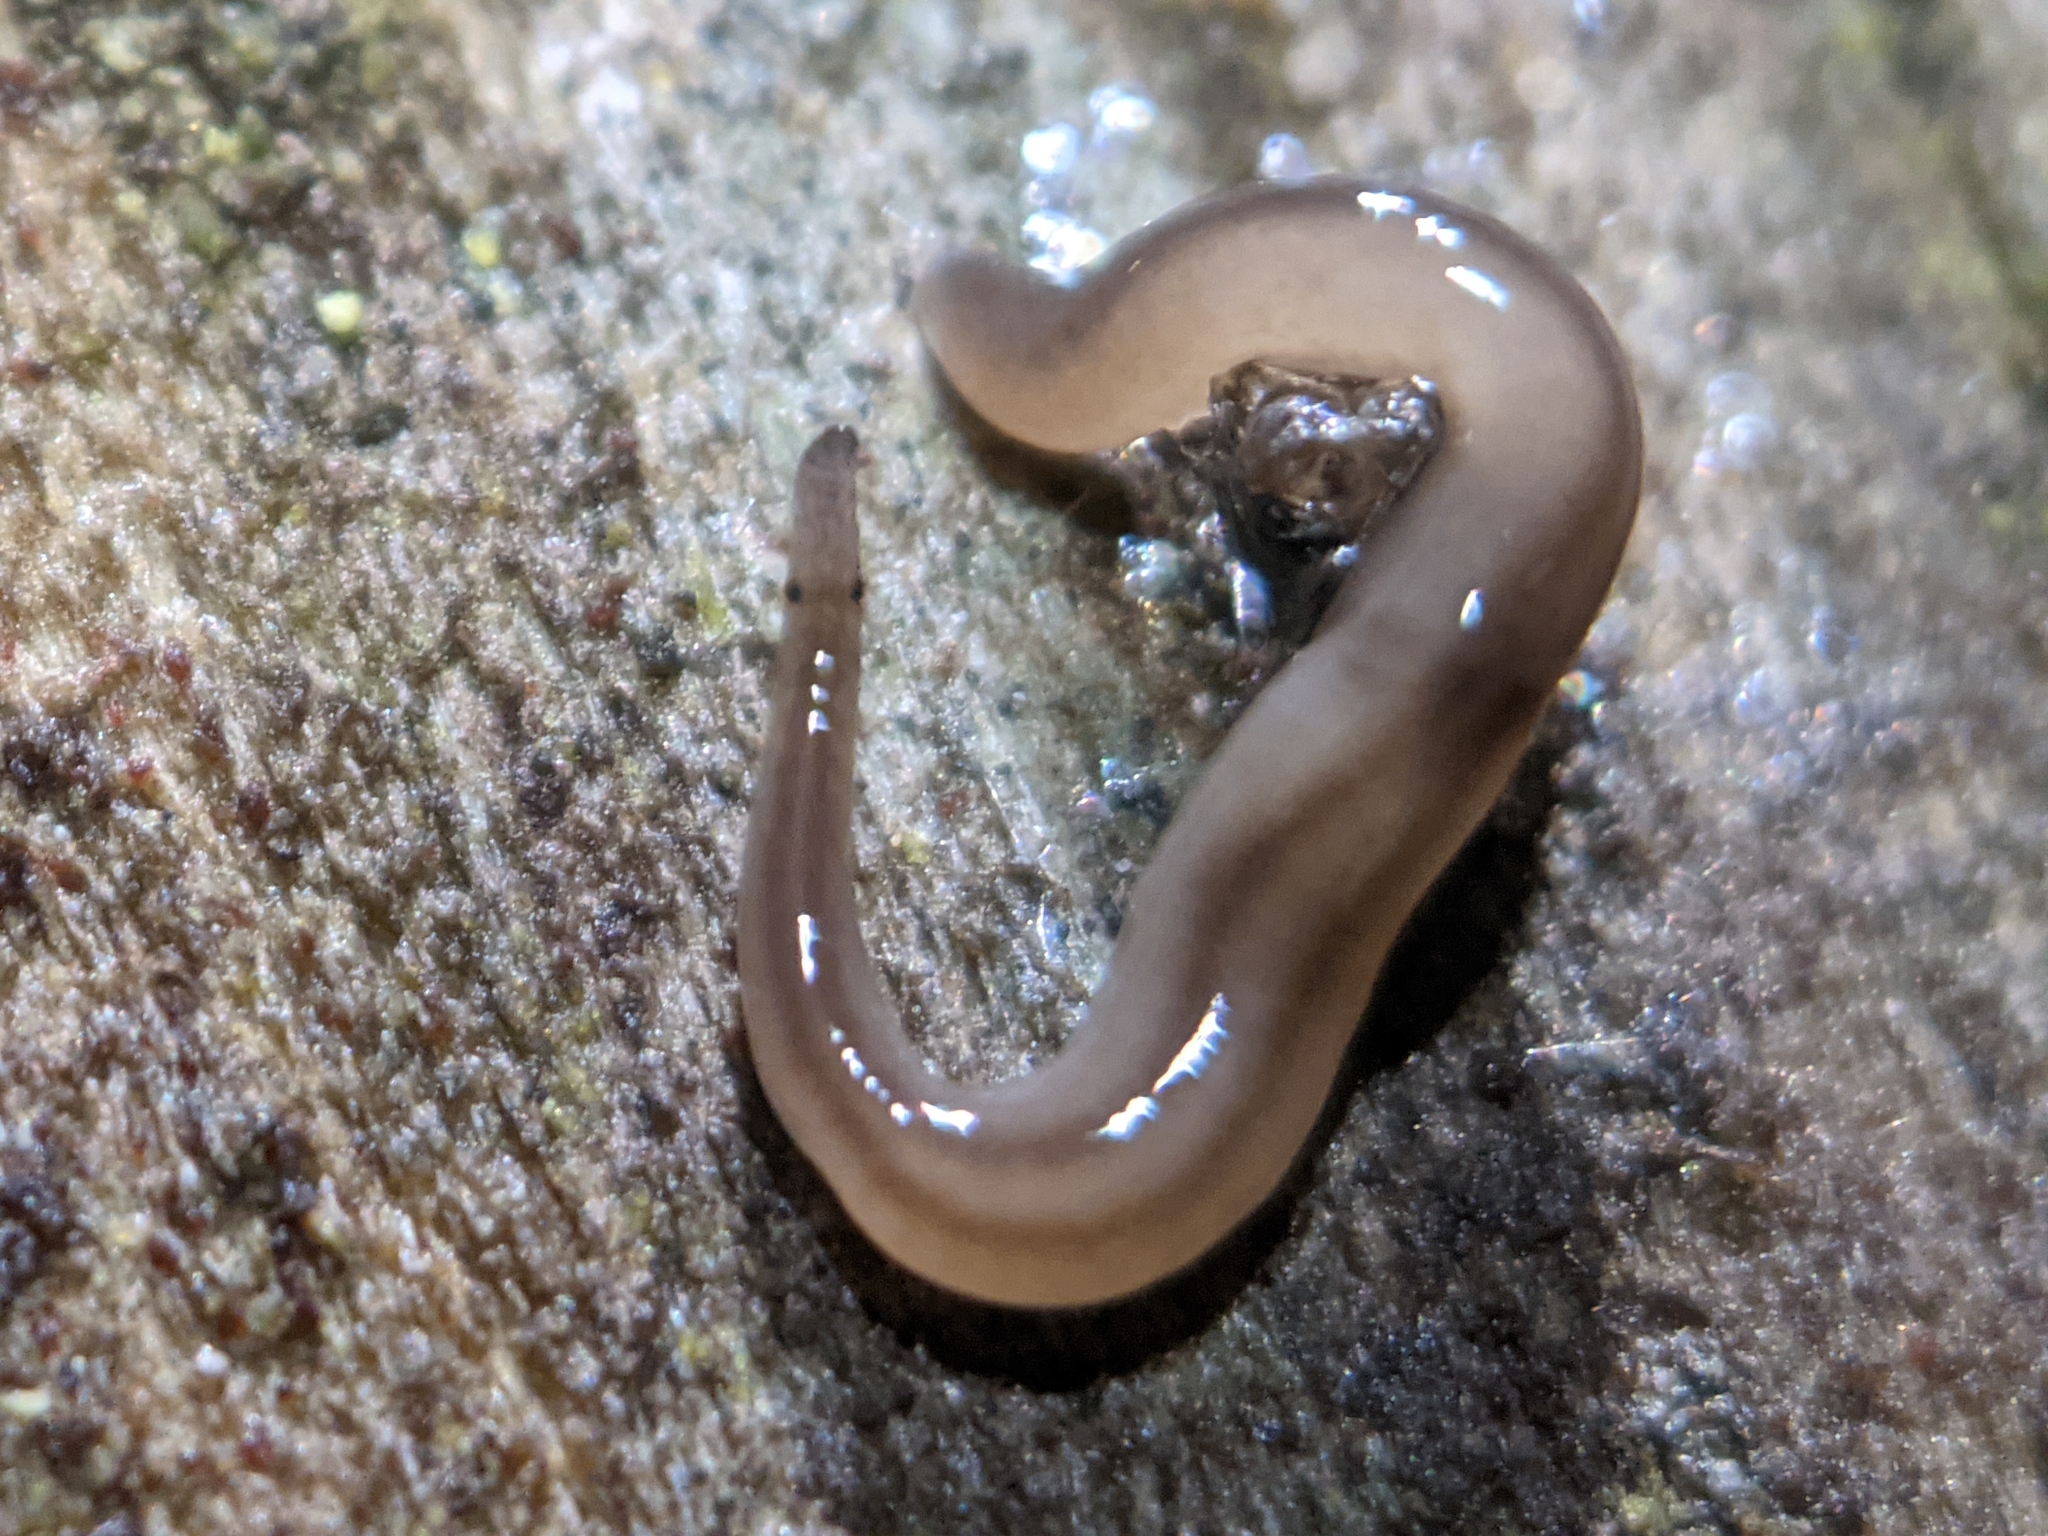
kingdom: Animalia
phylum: Platyhelminthes
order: Tricladida
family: Geoplanidae
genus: Rhynchodemus
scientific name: Rhynchodemus sylvaticus
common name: A flatworm
